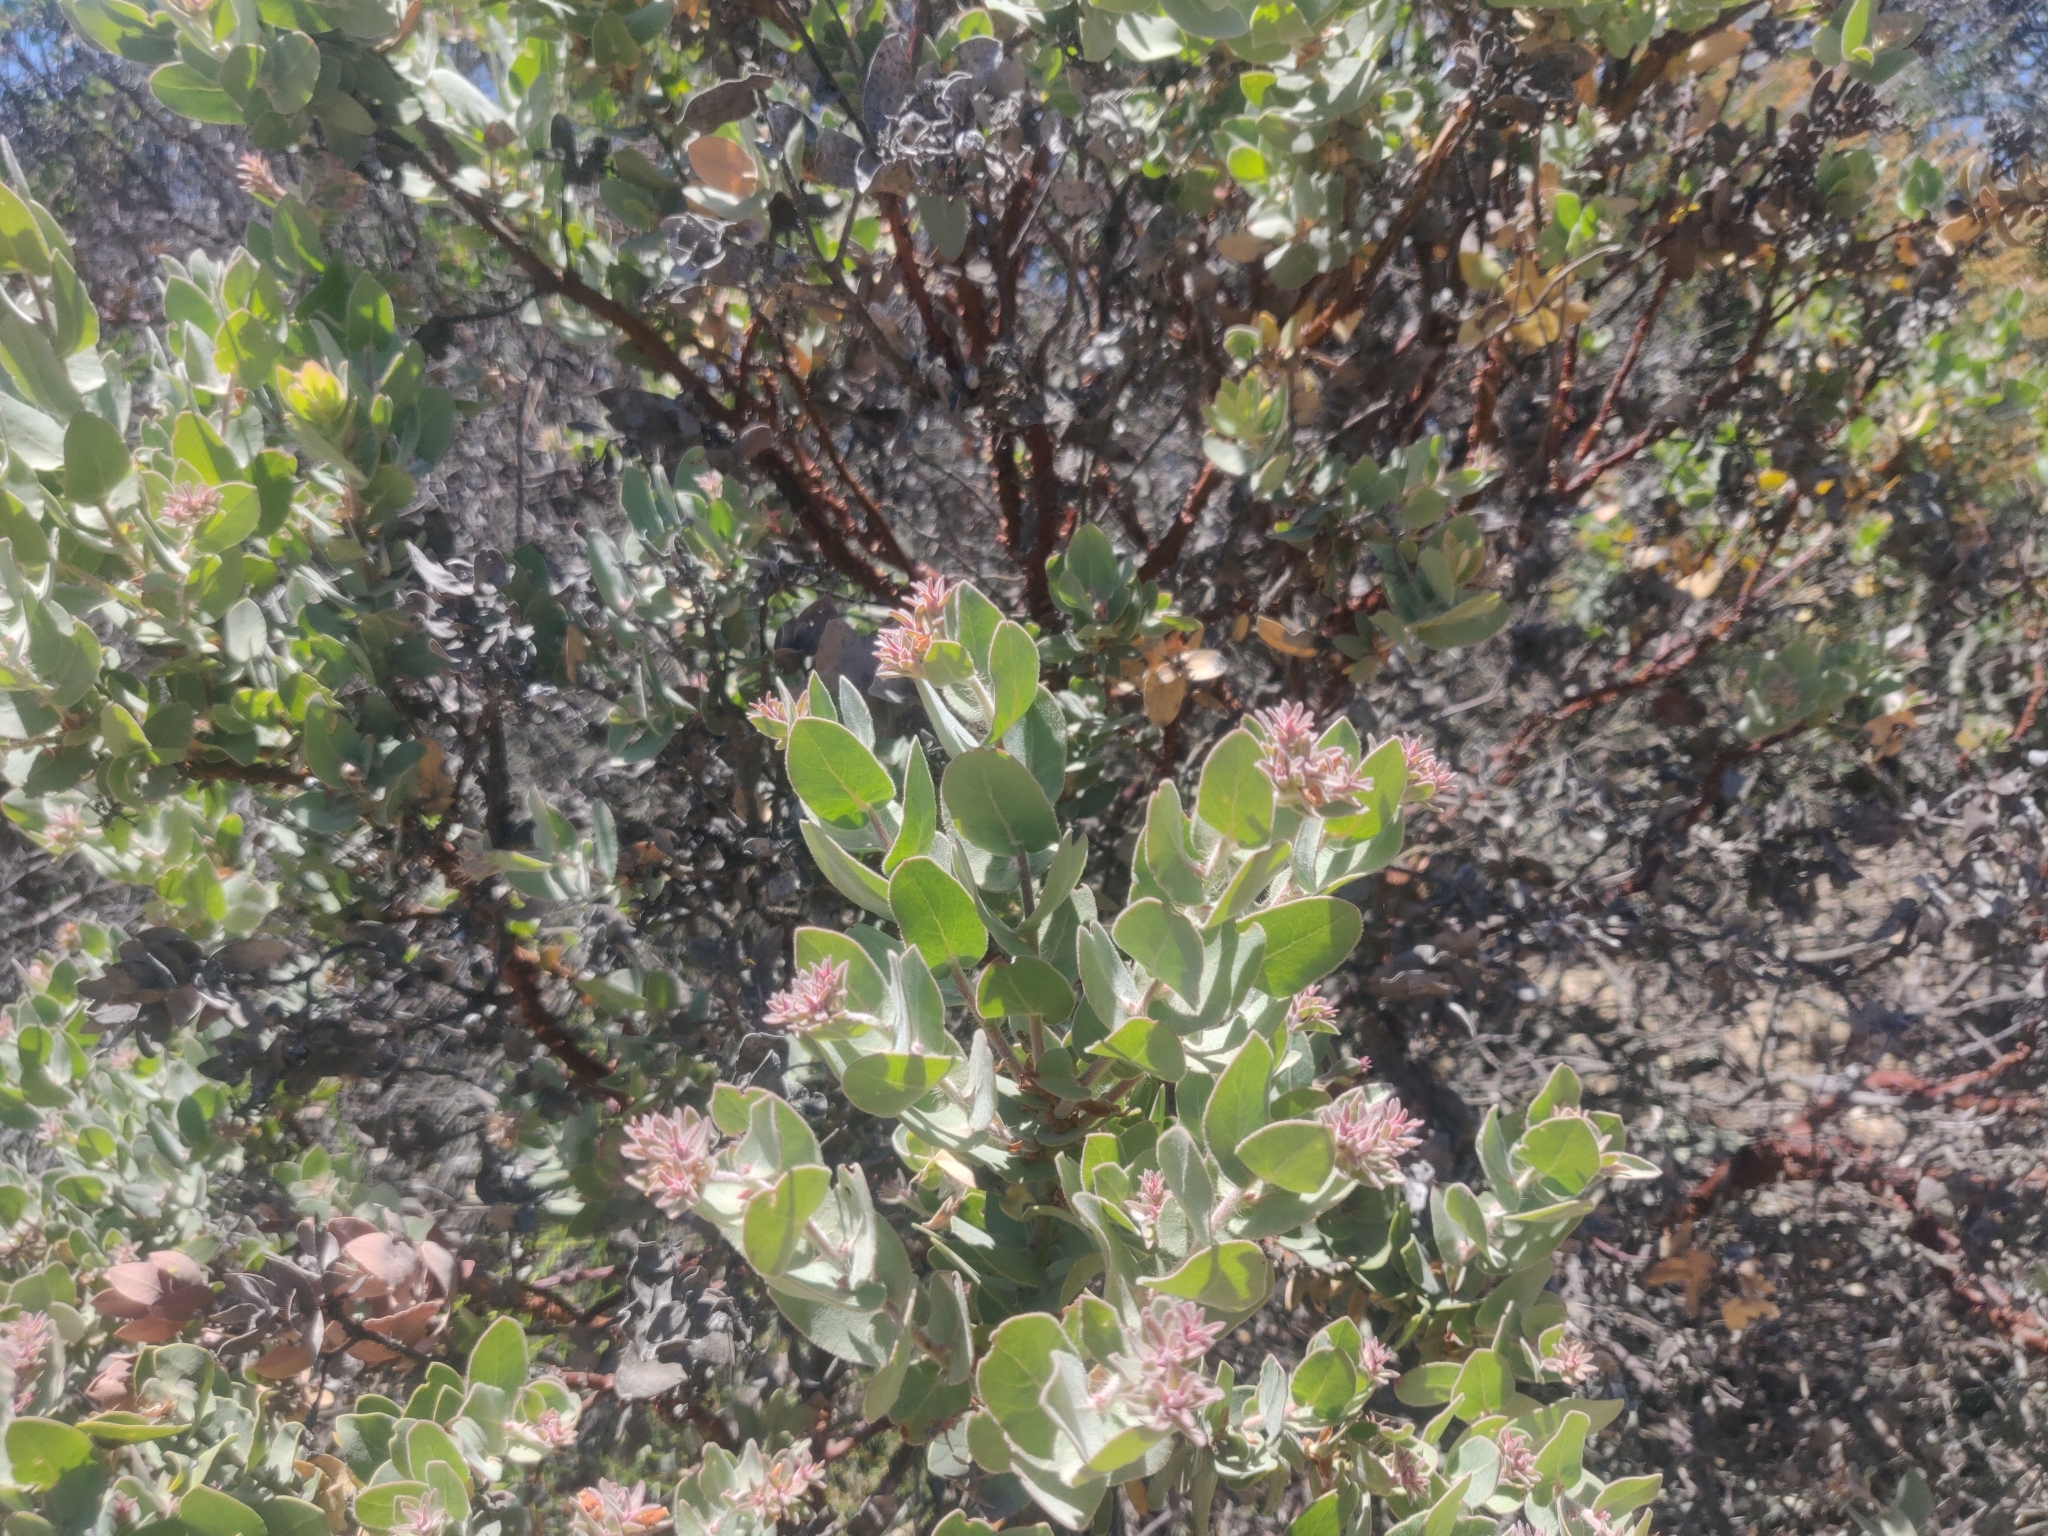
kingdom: Plantae
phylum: Tracheophyta
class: Magnoliopsida
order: Ericales
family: Ericaceae
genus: Arctostaphylos
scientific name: Arctostaphylos auriculata
